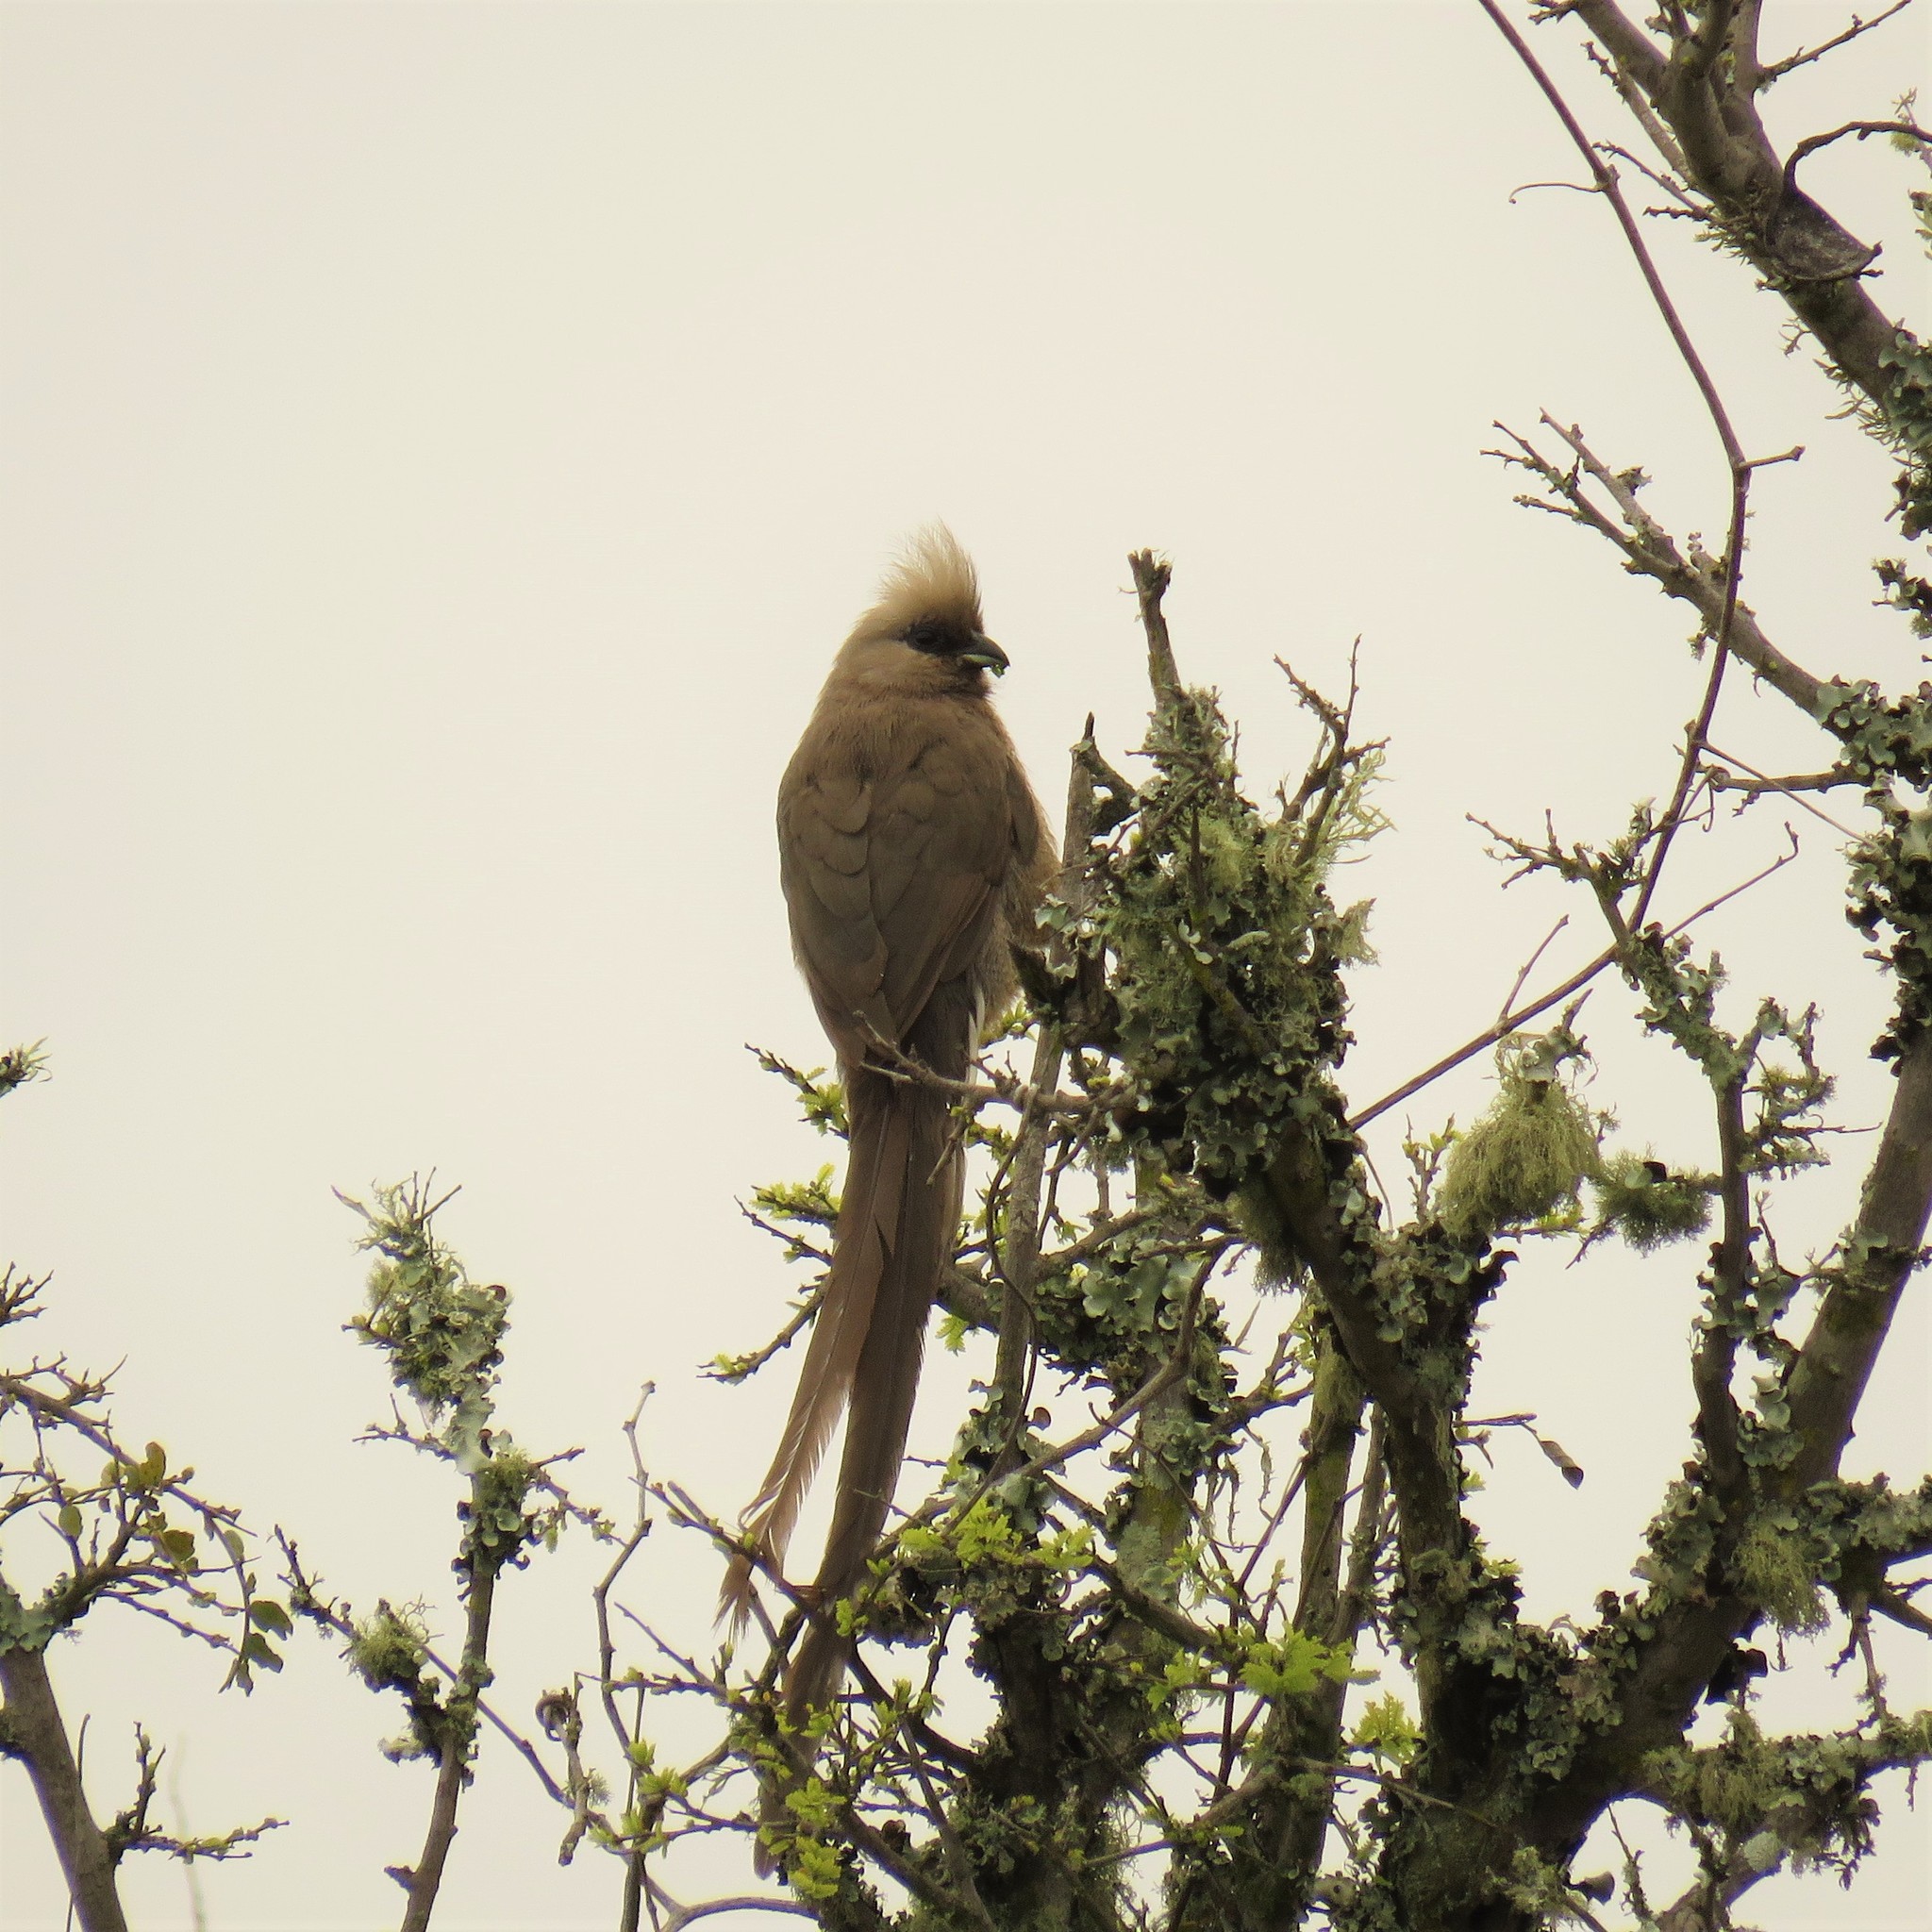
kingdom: Animalia
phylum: Chordata
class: Aves
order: Coliiformes
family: Coliidae
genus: Colius
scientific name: Colius striatus
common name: Speckled mousebird
